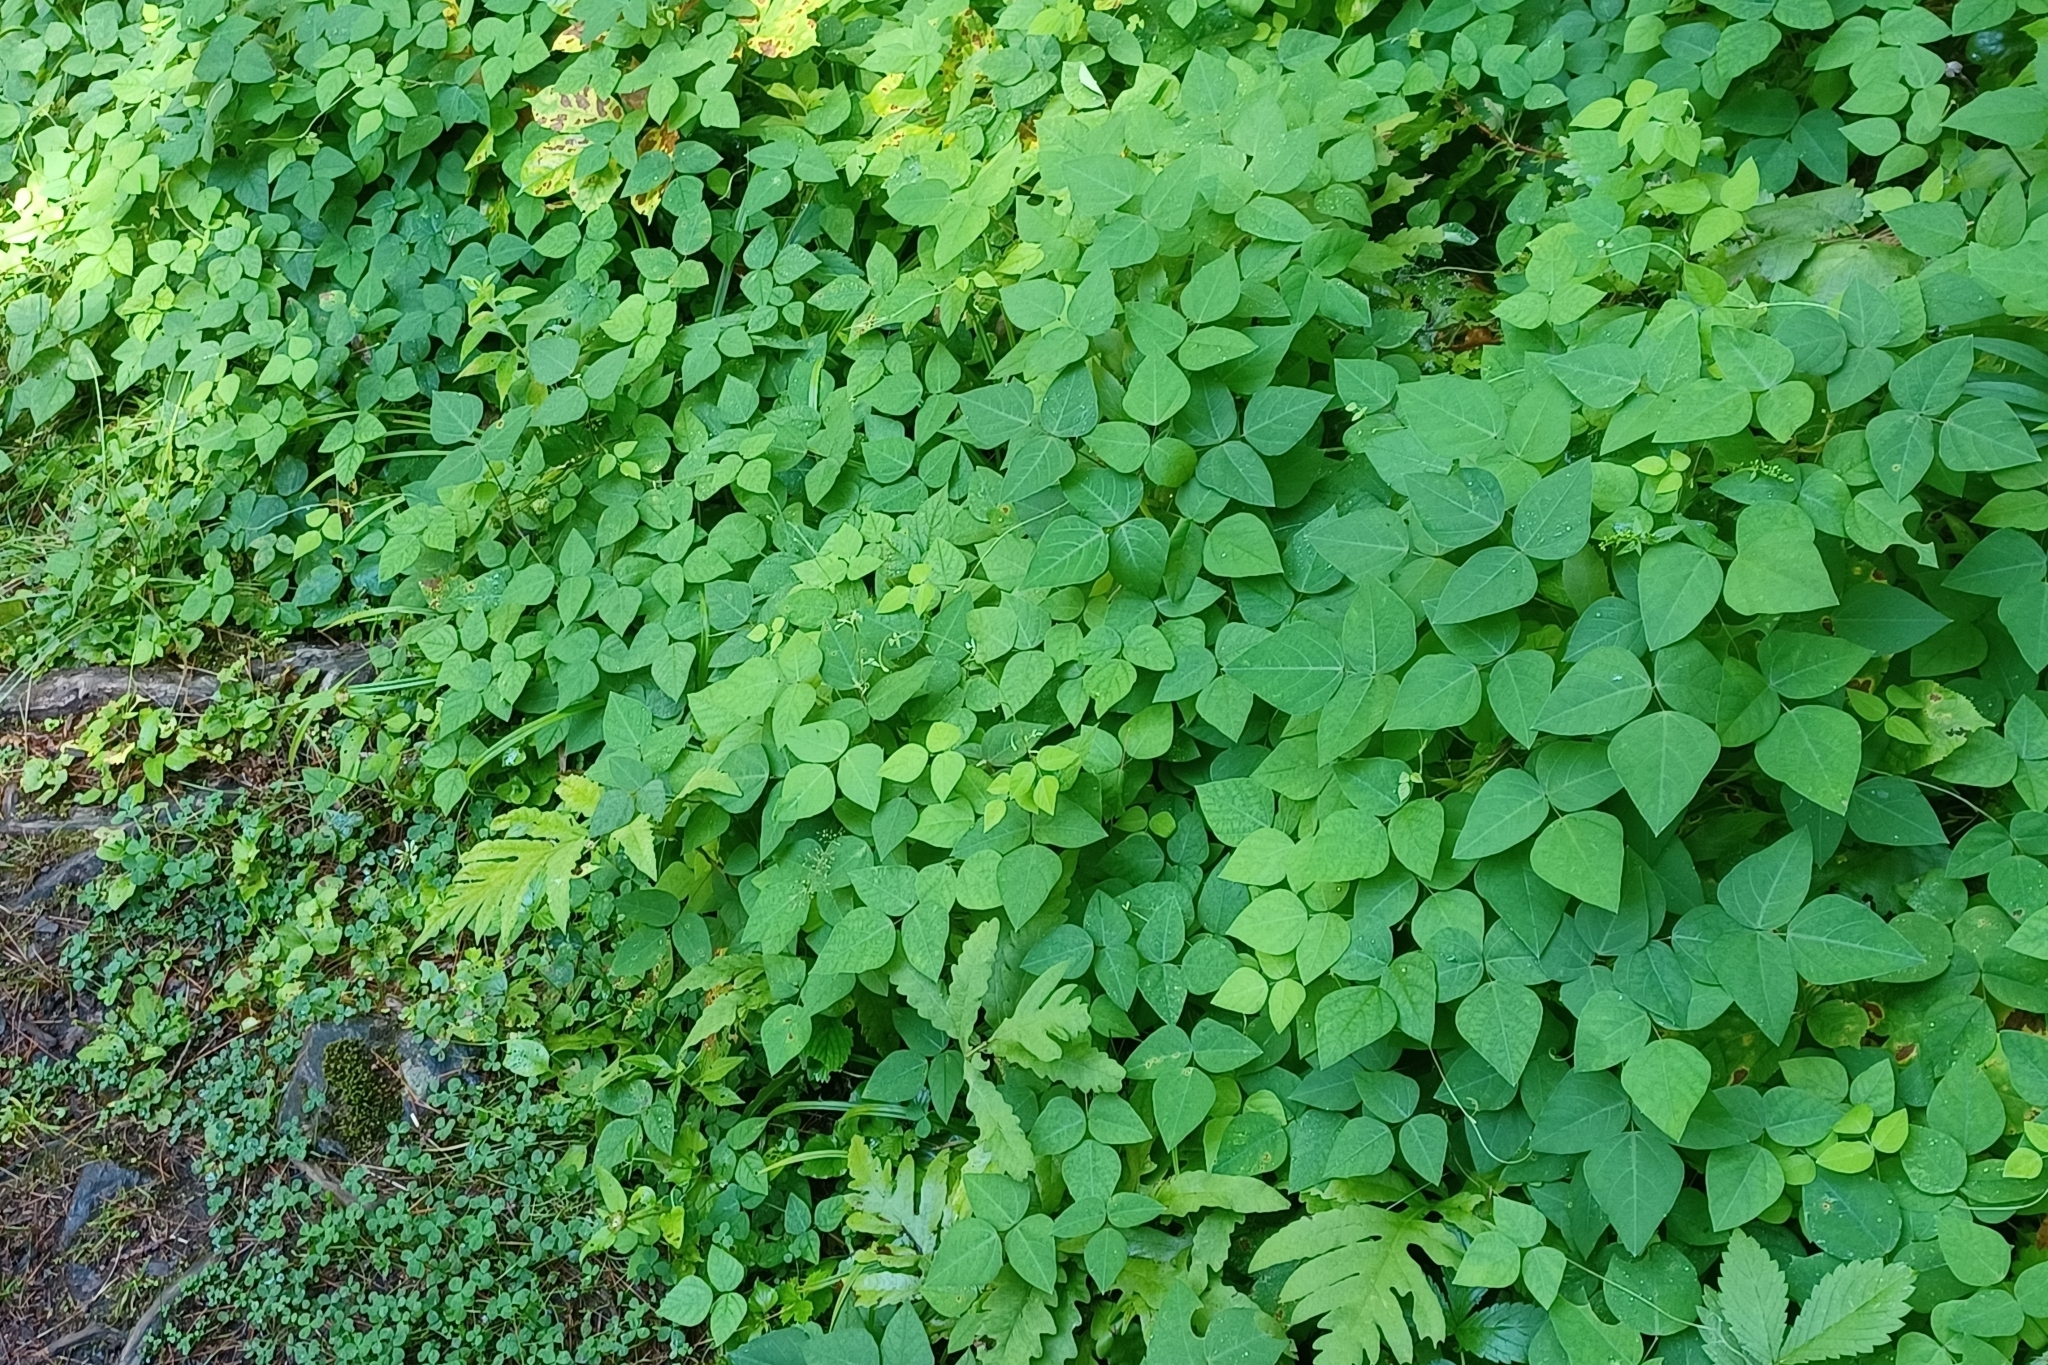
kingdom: Plantae
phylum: Tracheophyta
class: Magnoliopsida
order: Fabales
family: Fabaceae
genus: Amphicarpaea
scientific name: Amphicarpaea bracteata
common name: American hog peanut
